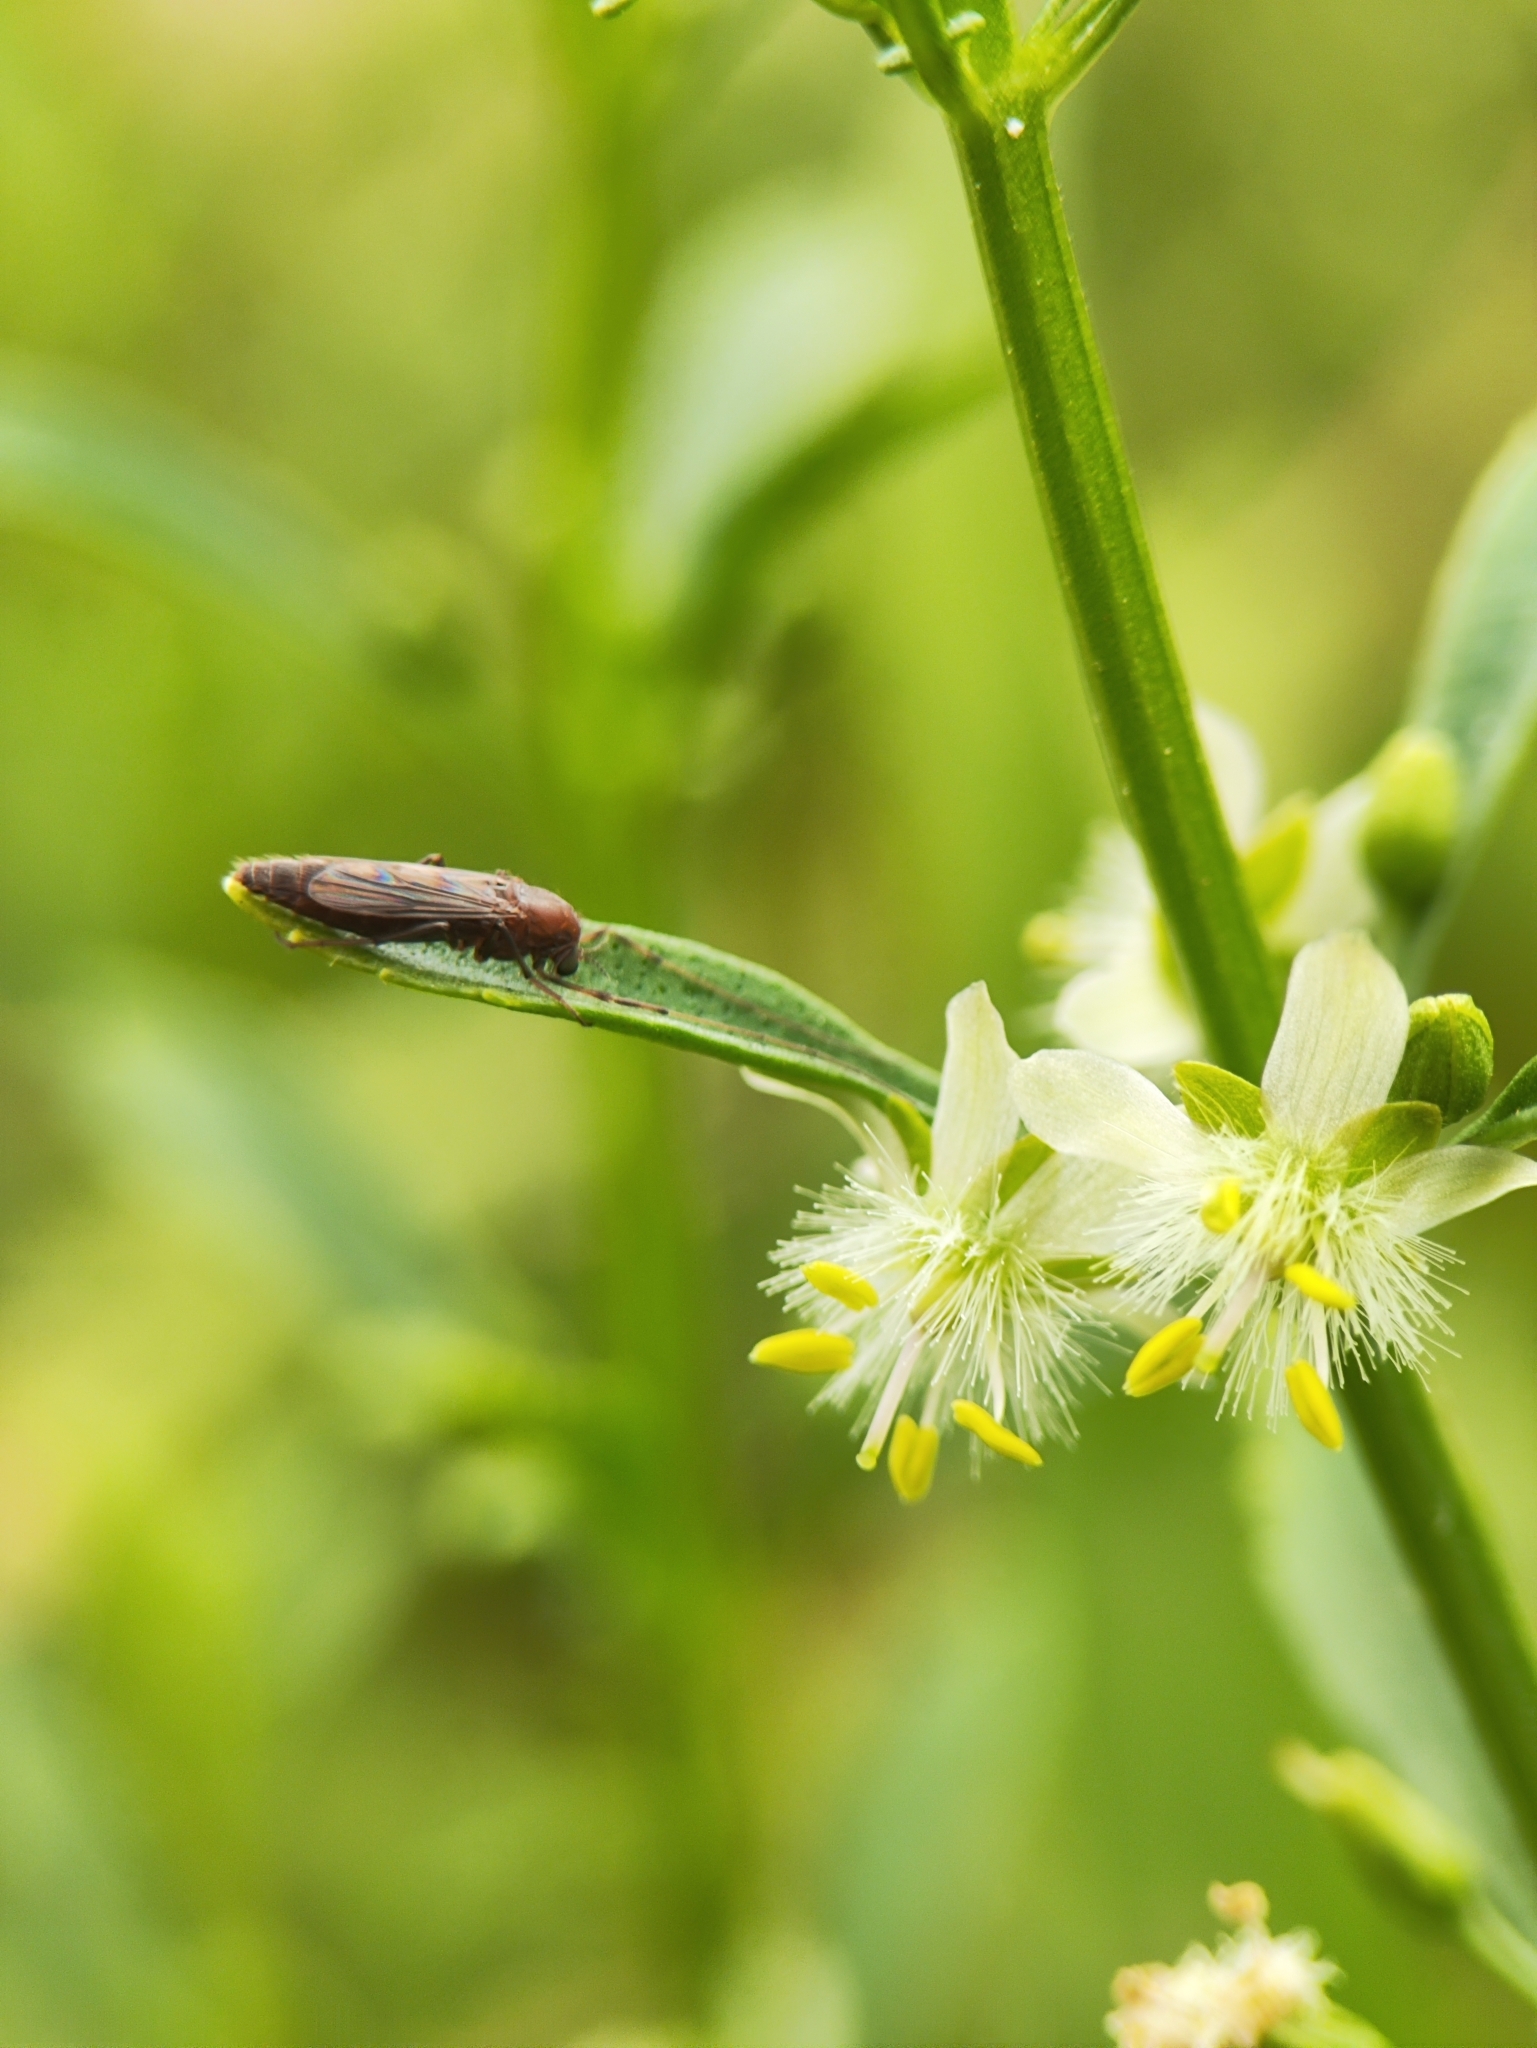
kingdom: Plantae
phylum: Tracheophyta
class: Magnoliopsida
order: Lamiales
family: Plantaginaceae
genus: Scoparia
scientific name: Scoparia dulcis
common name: Scoparia-weed
